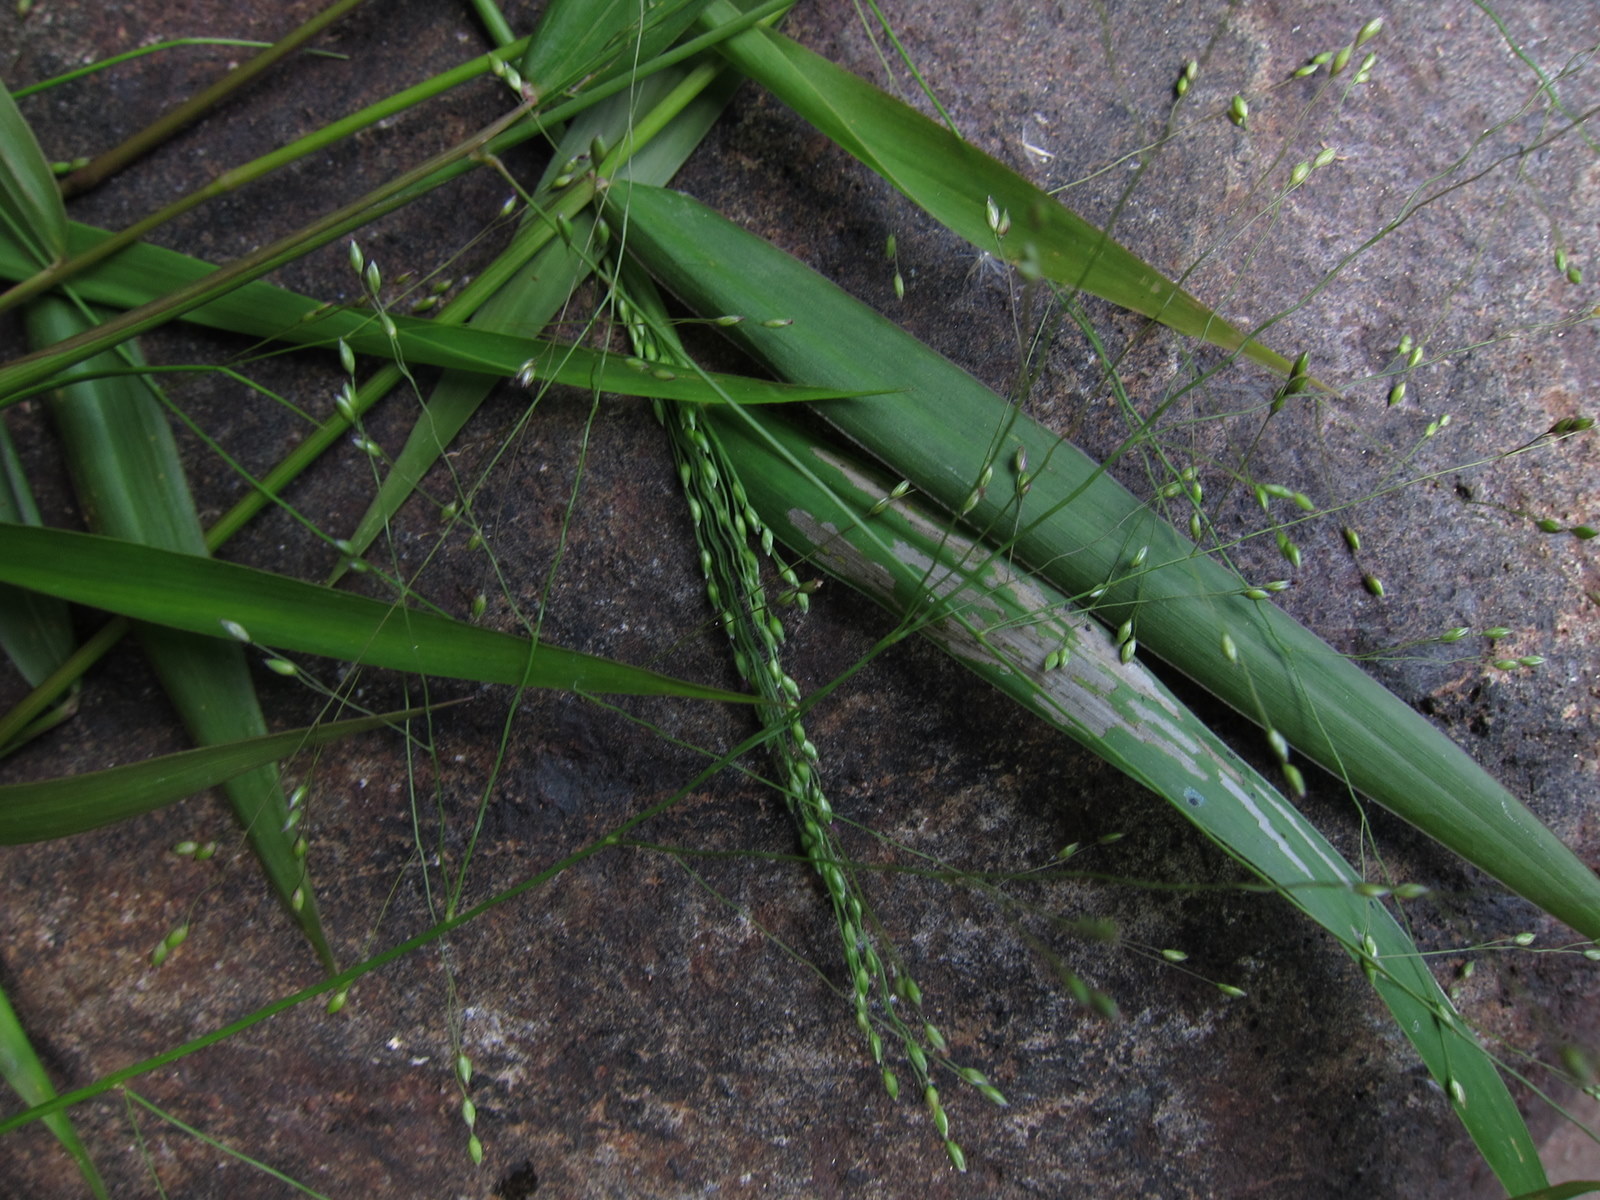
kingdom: Plantae
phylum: Tracheophyta
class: Liliopsida
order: Poales
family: Poaceae
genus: Panicum
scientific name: Panicum ambositrense
